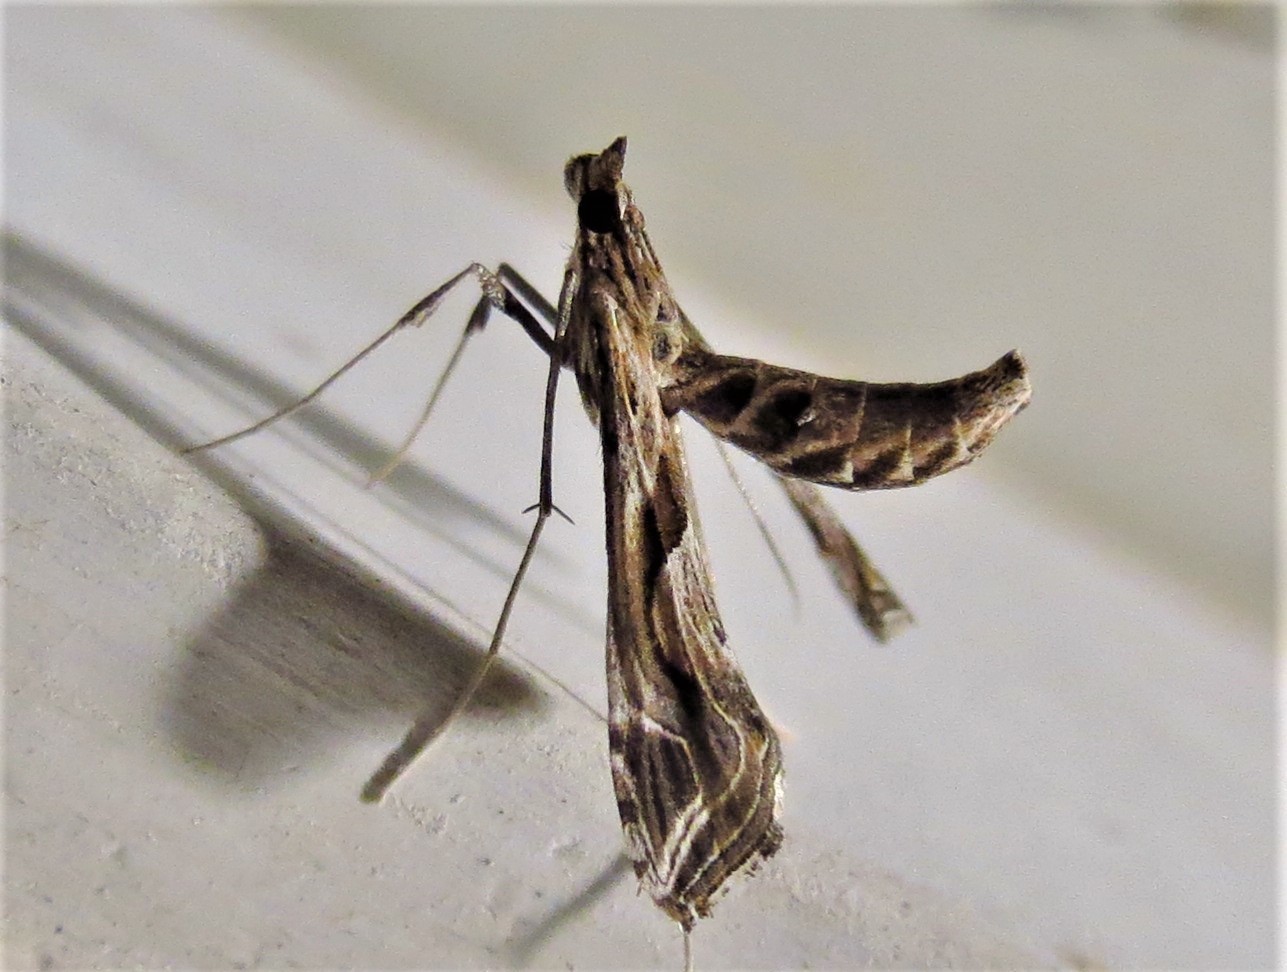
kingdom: Animalia
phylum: Arthropoda
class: Insecta
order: Lepidoptera
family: Crambidae
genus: Lineodes
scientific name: Lineodes integra
